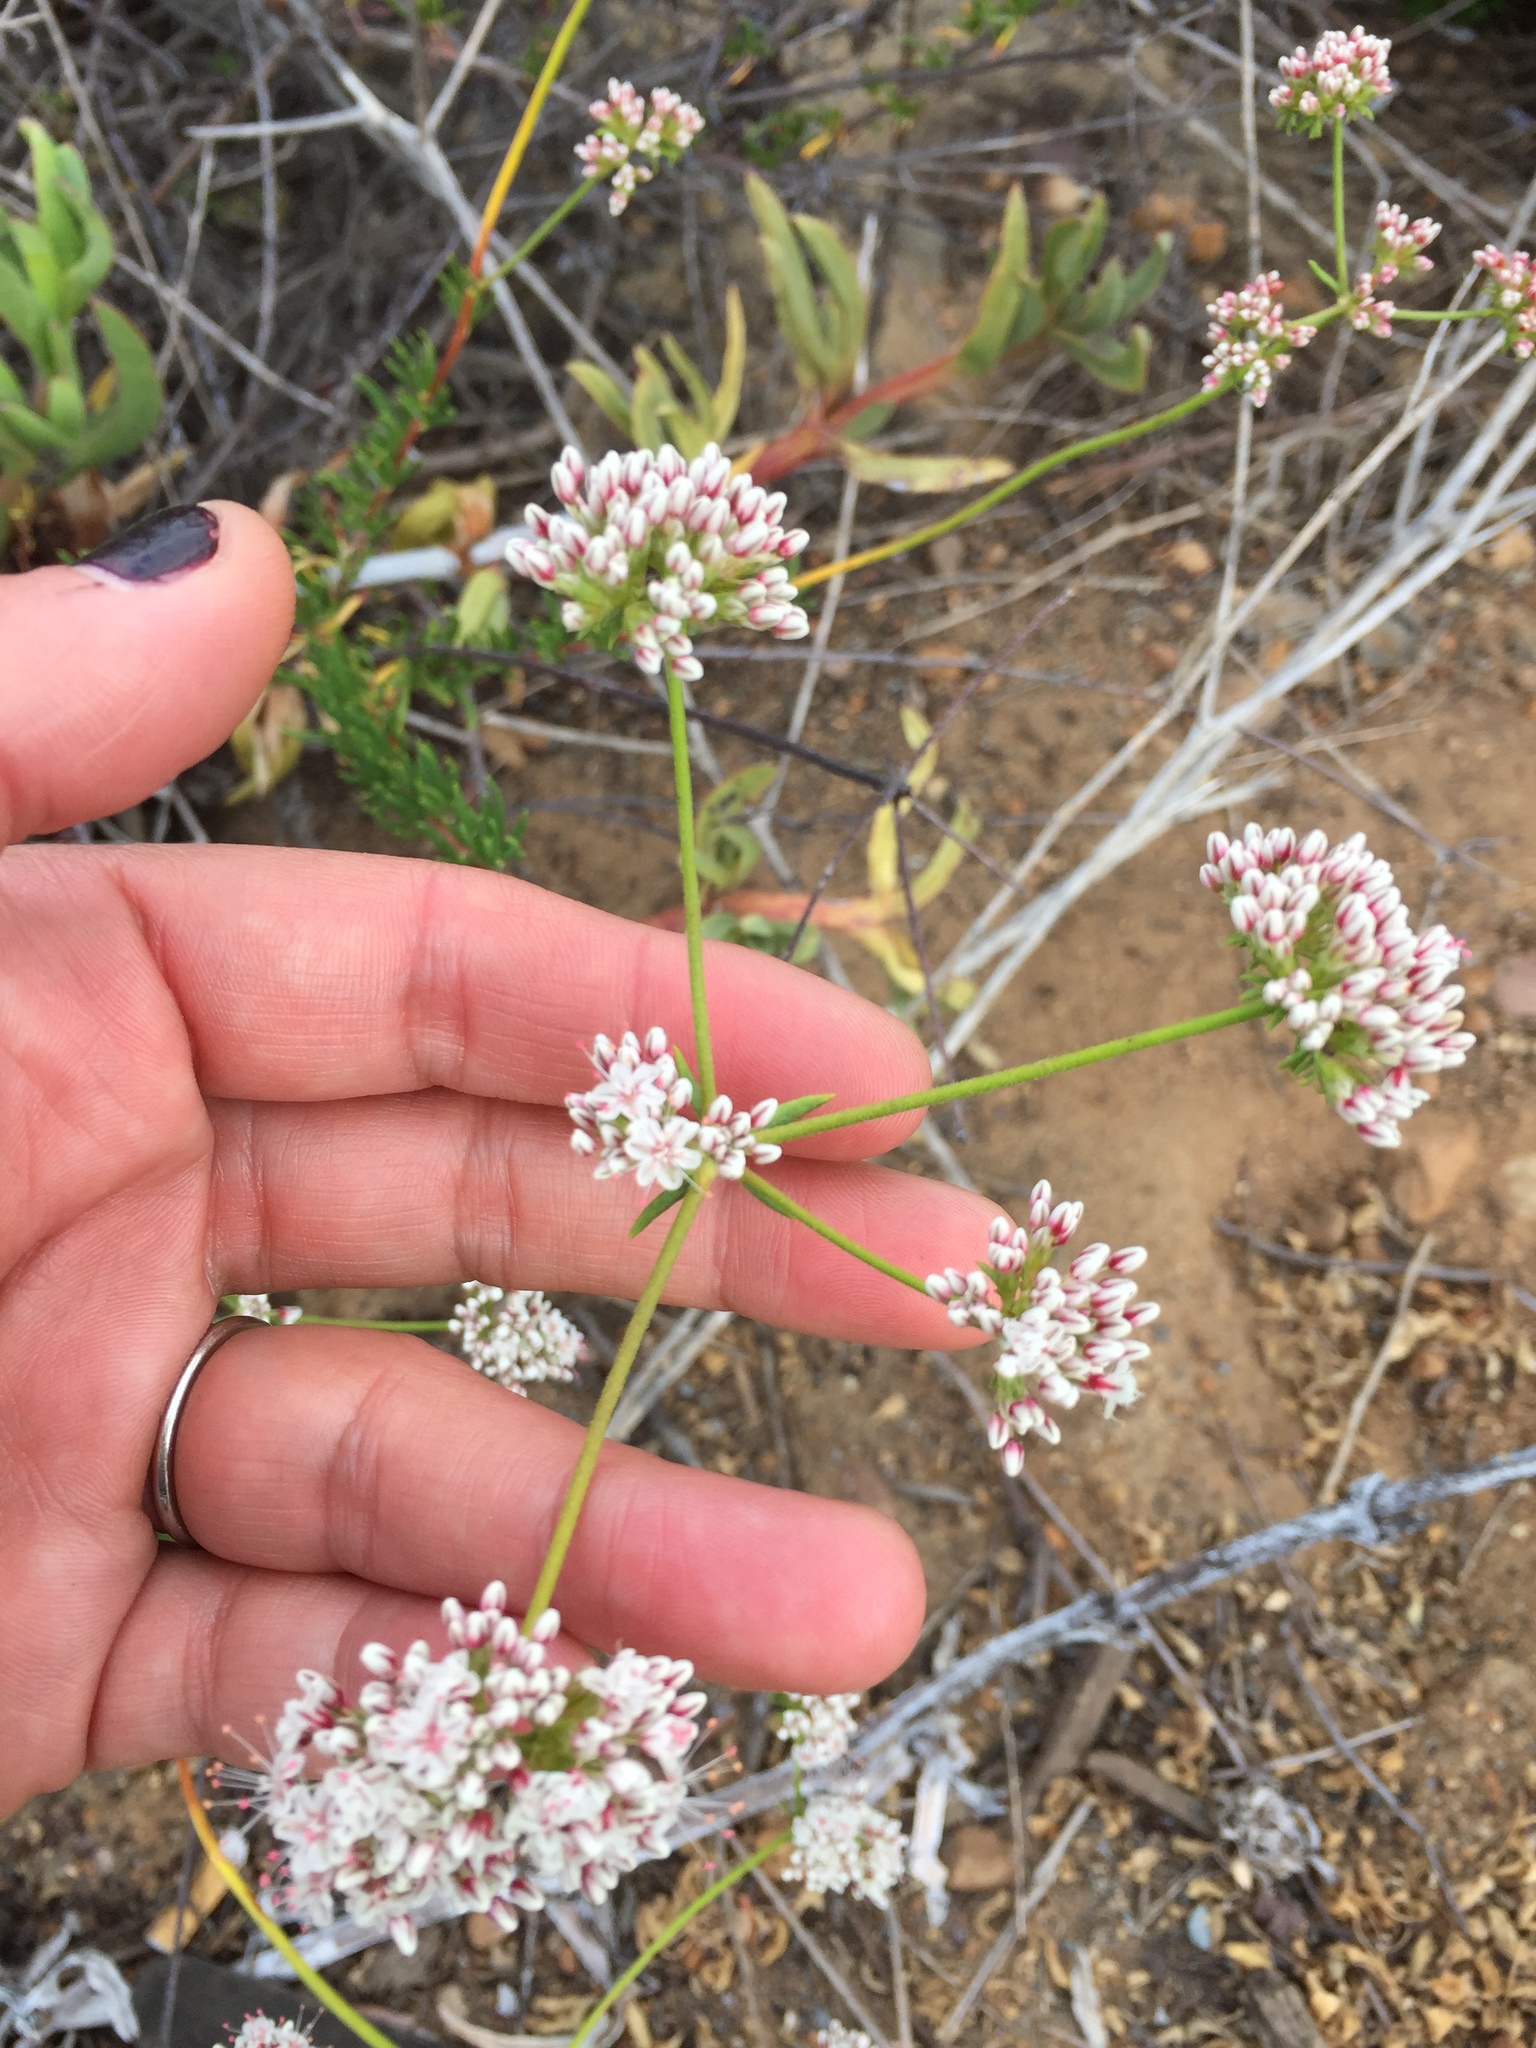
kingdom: Plantae
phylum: Tracheophyta
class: Magnoliopsida
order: Caryophyllales
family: Polygonaceae
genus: Eriogonum
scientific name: Eriogonum fasciculatum
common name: California wild buckwheat
